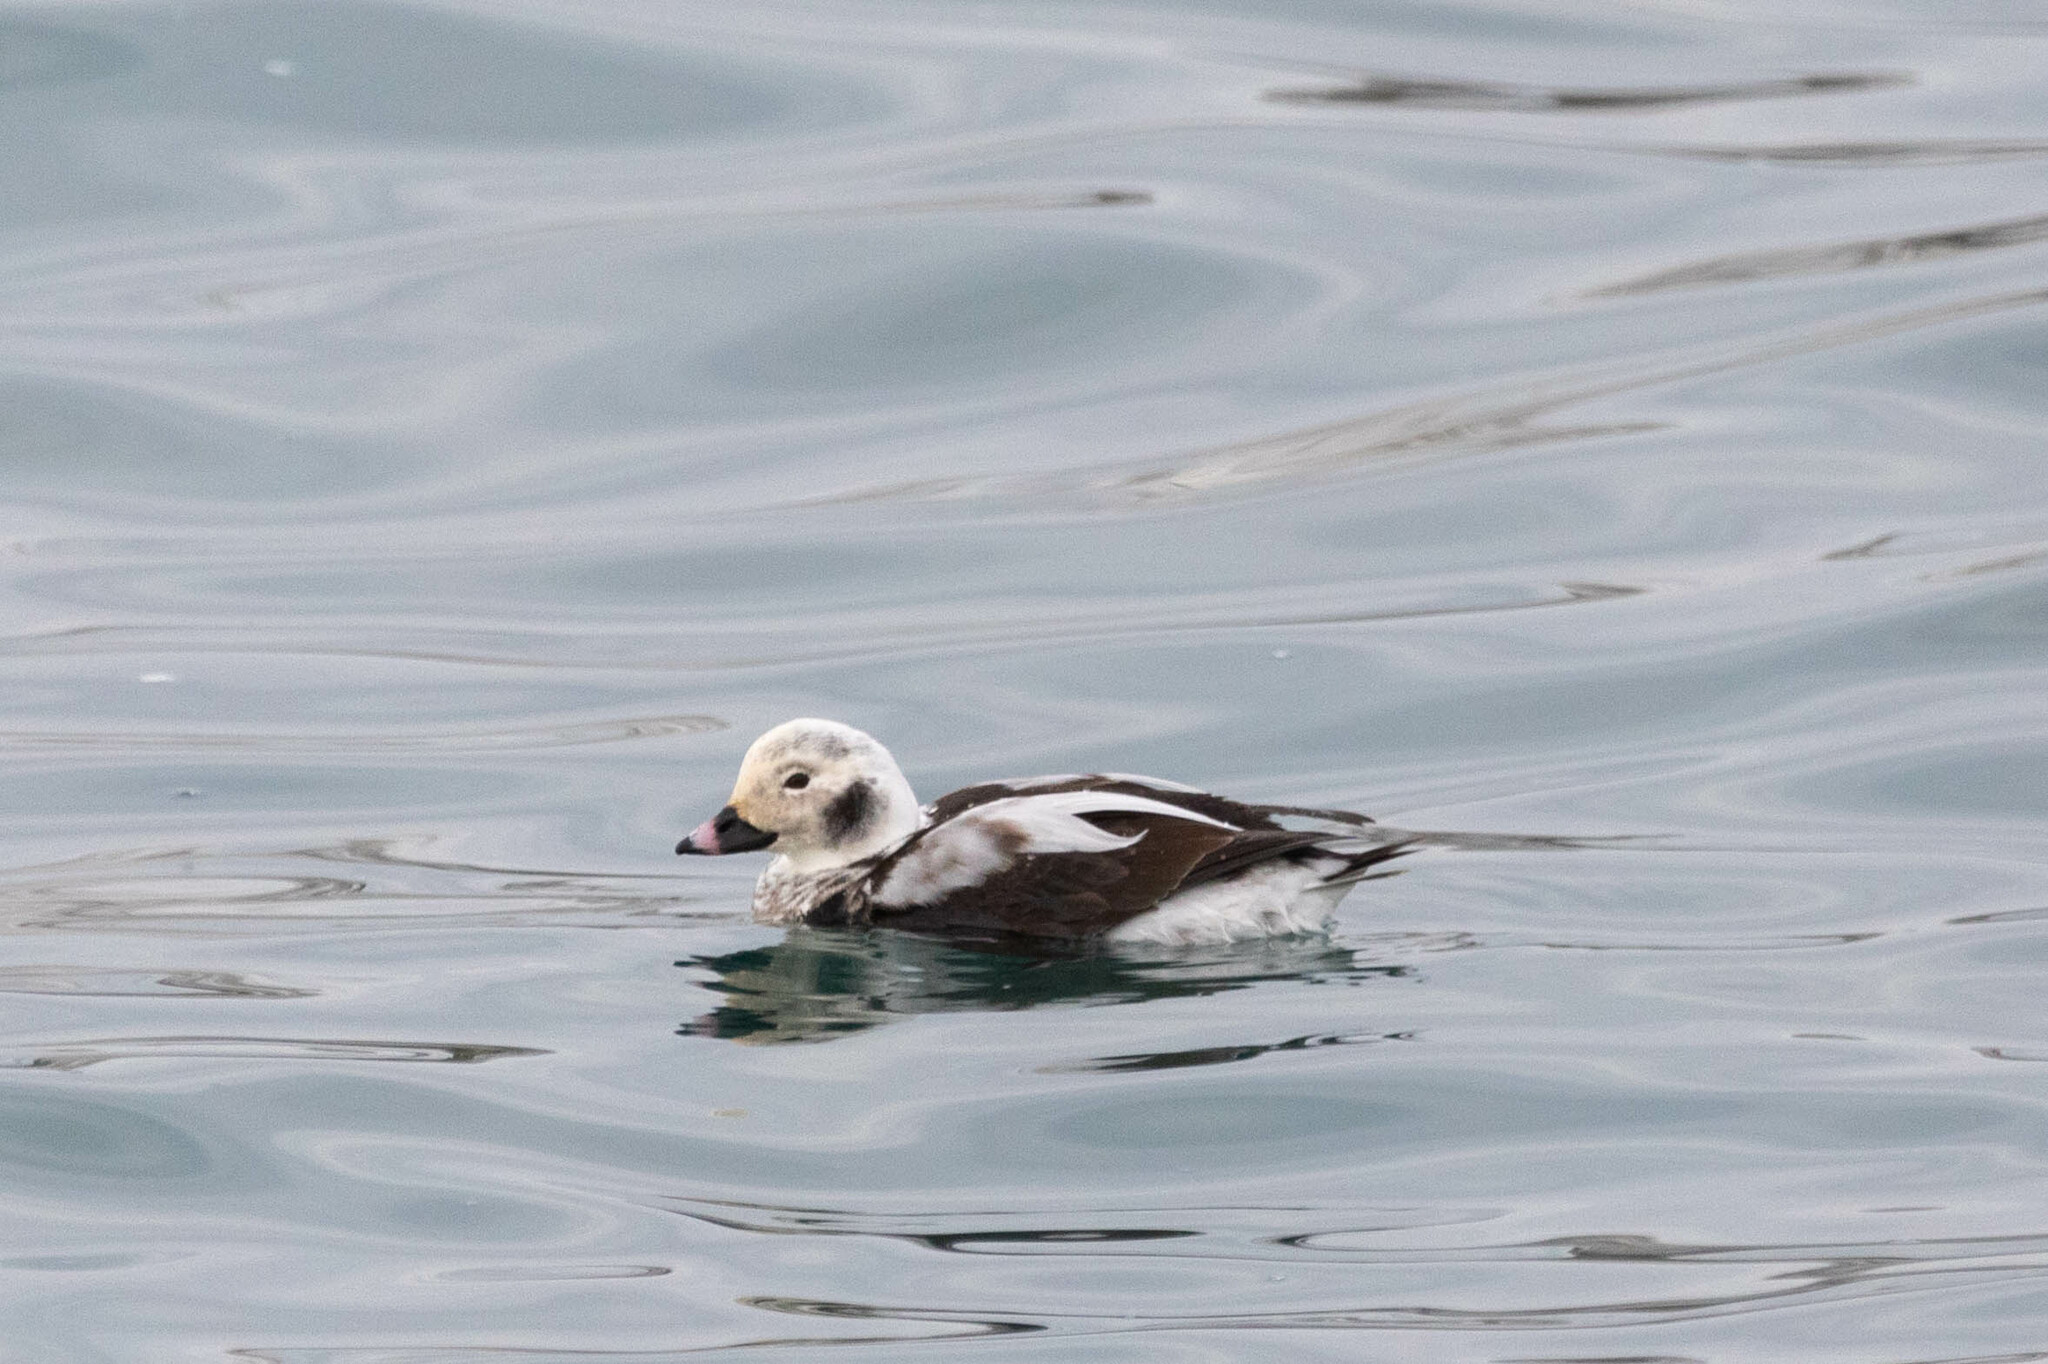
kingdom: Animalia
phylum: Chordata
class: Aves
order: Anseriformes
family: Anatidae
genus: Clangula
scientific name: Clangula hyemalis
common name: Long-tailed duck
